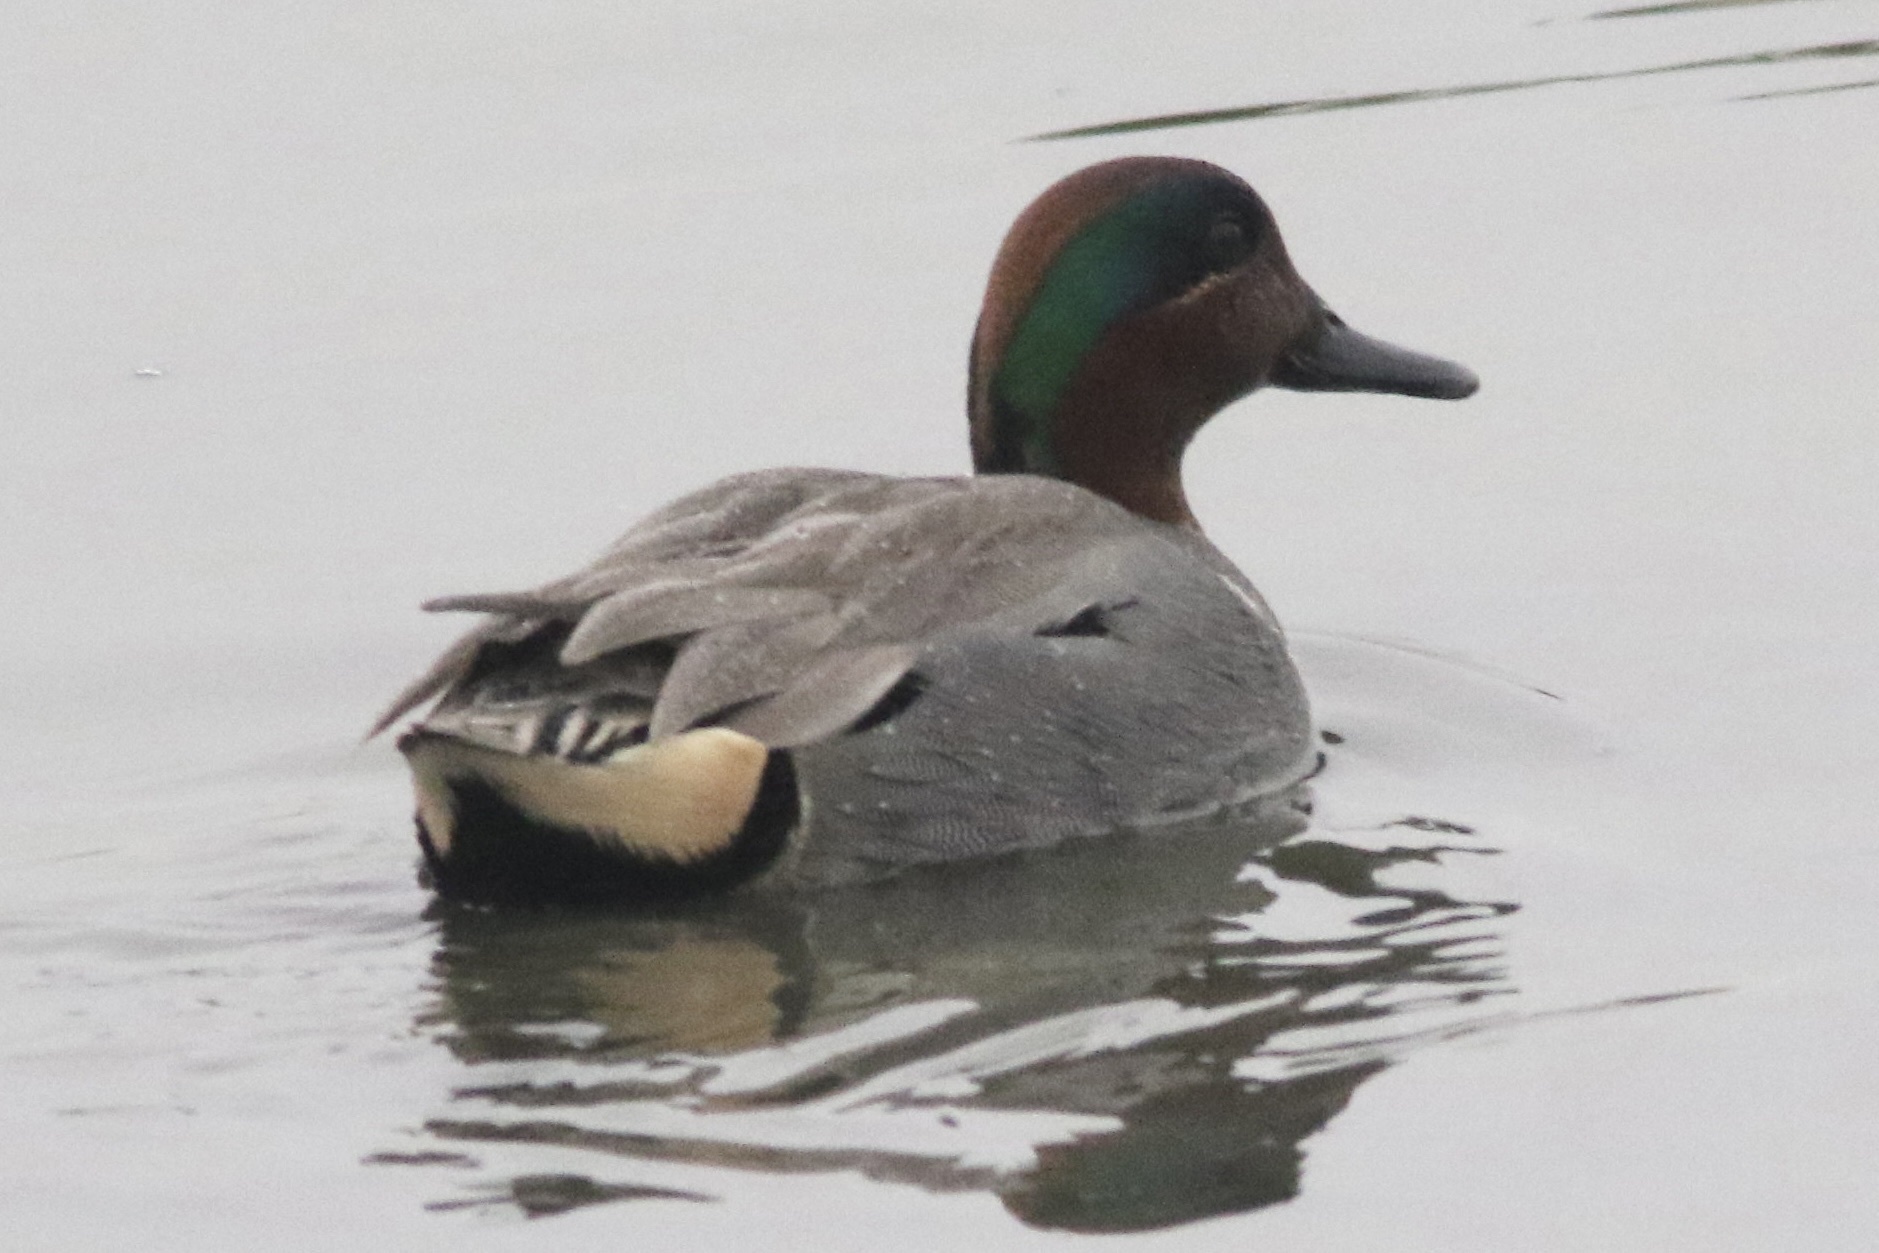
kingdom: Animalia
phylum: Chordata
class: Aves
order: Anseriformes
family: Anatidae
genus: Anas
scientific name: Anas crecca
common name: Eurasian teal
